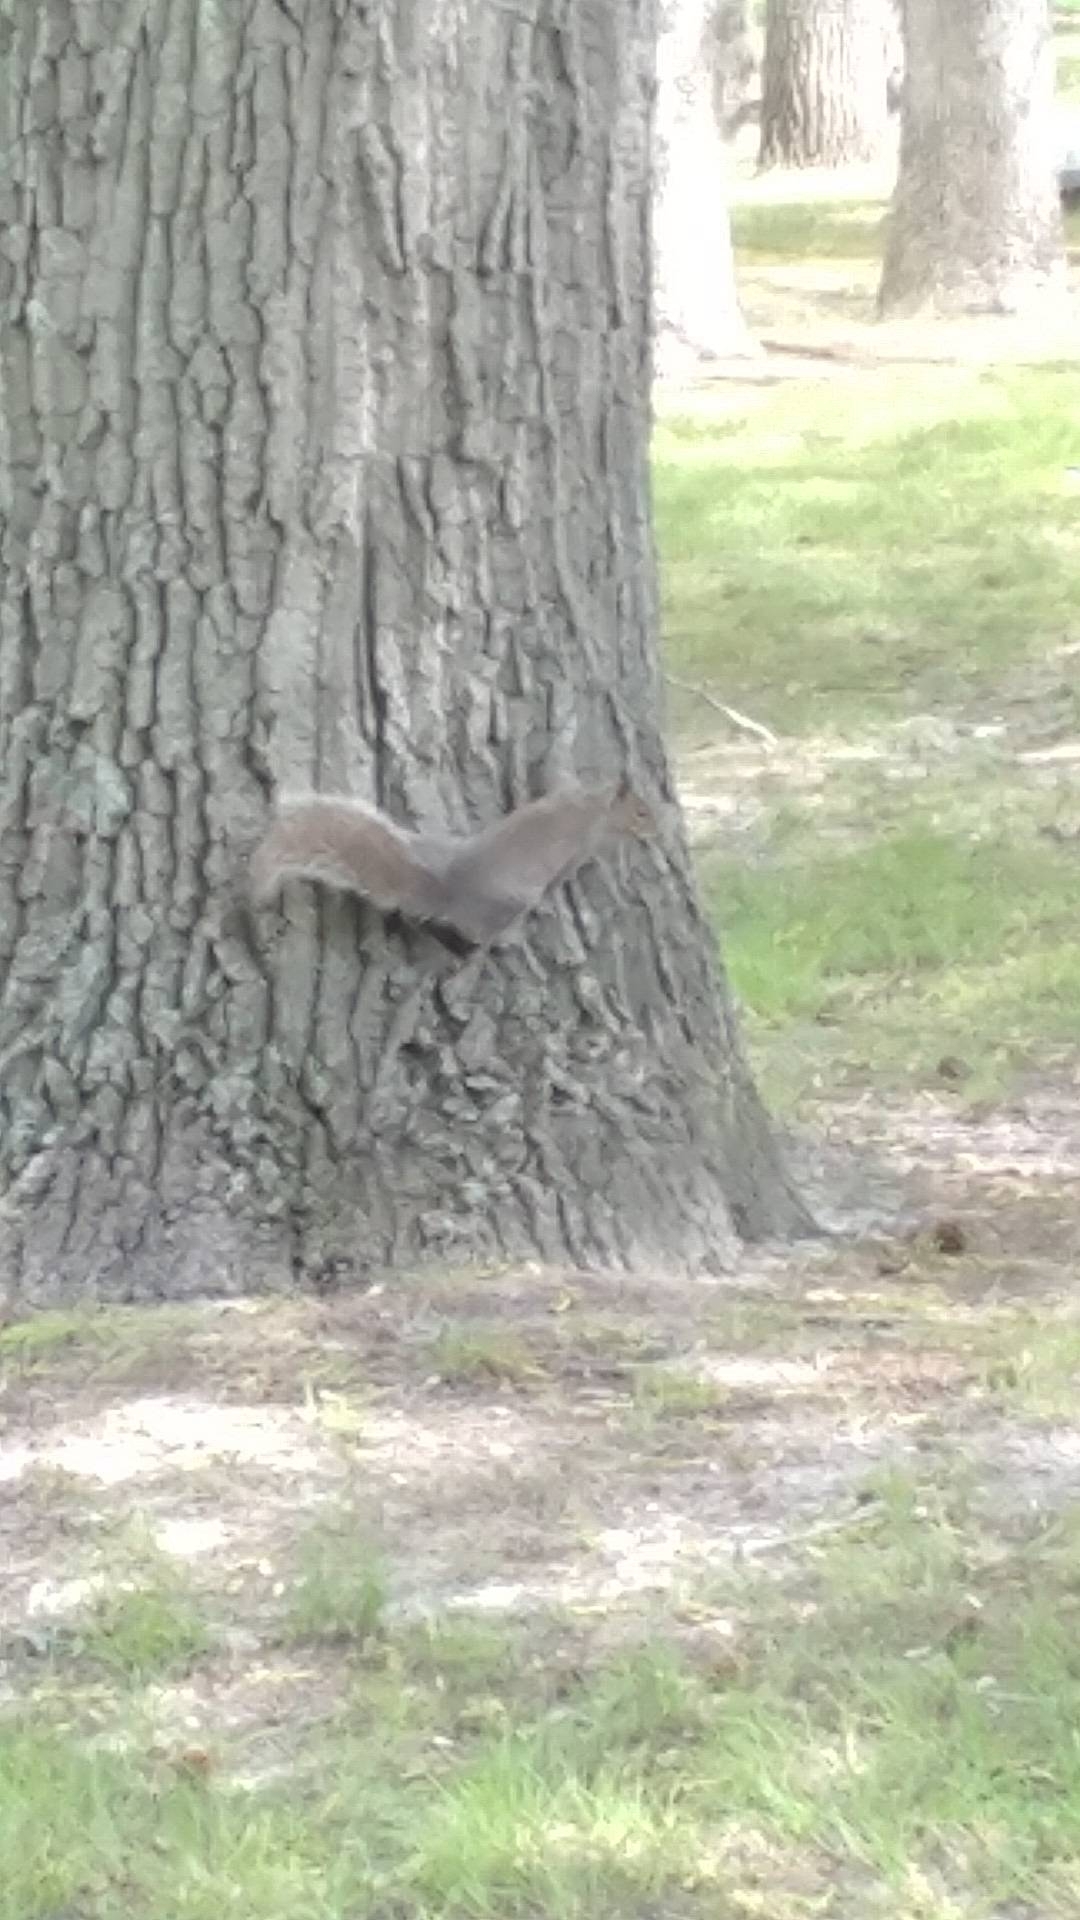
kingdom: Animalia
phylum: Chordata
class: Mammalia
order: Rodentia
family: Sciuridae
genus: Sciurus
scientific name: Sciurus carolinensis
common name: Eastern gray squirrel
